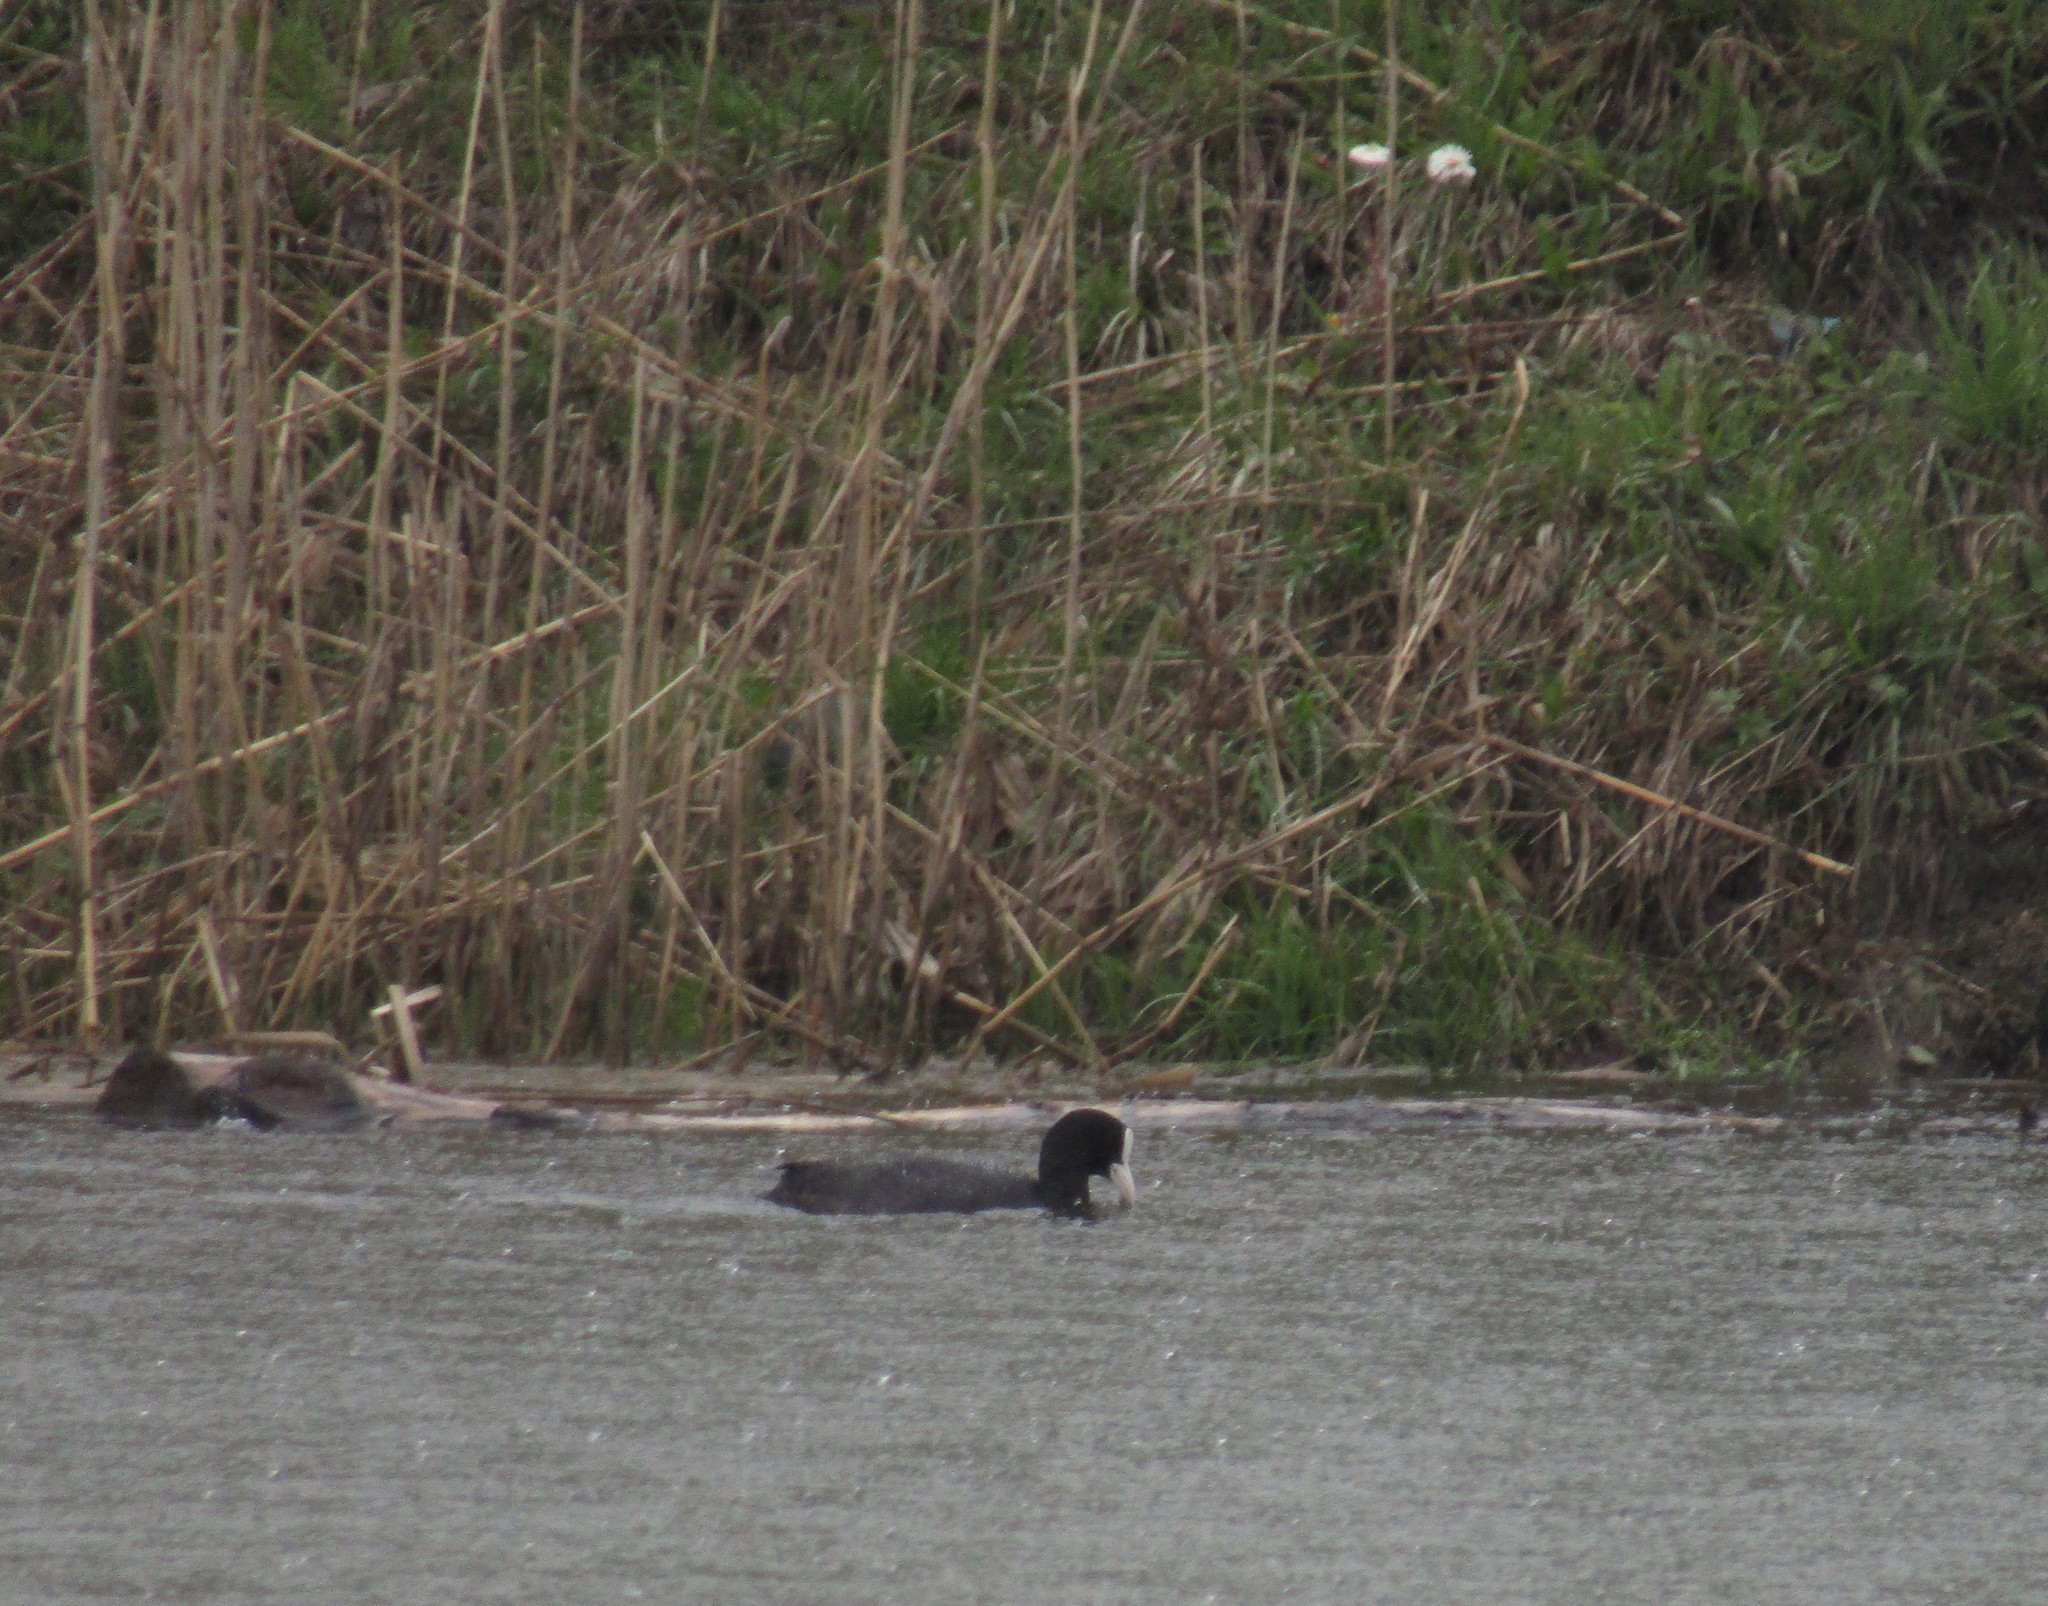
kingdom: Animalia
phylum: Chordata
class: Aves
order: Gruiformes
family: Rallidae
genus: Fulica
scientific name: Fulica atra
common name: Eurasian coot
